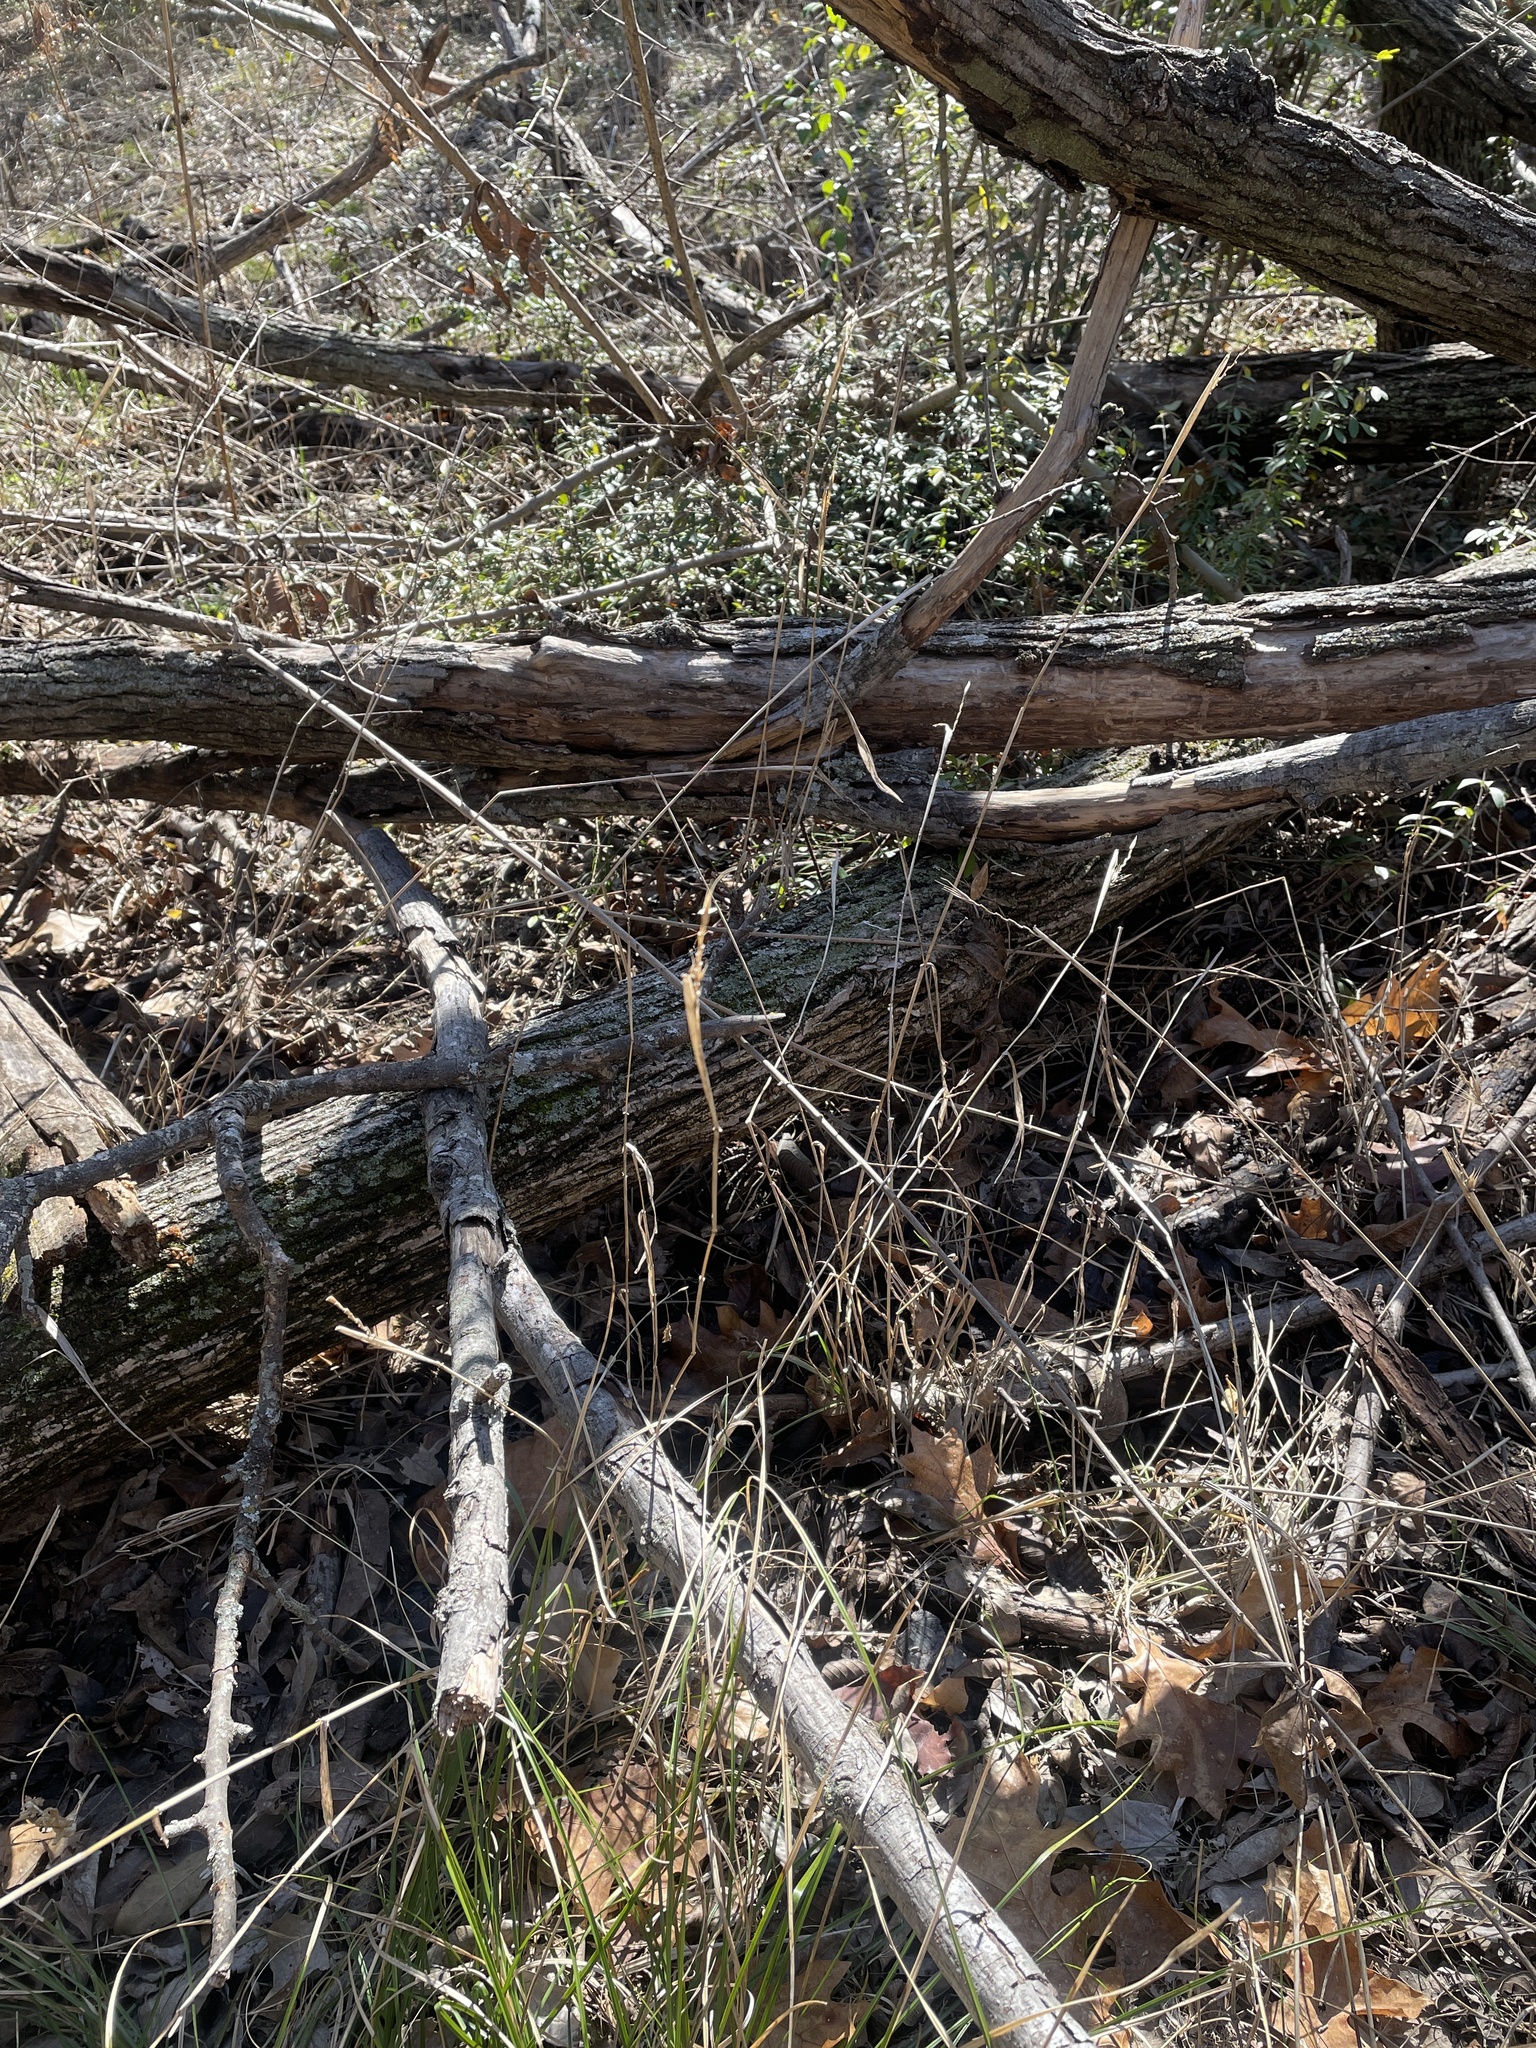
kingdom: Plantae
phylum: Tracheophyta
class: Liliopsida
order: Poales
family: Poaceae
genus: Elymus
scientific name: Elymus virginicus
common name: Common eastern wildrye
